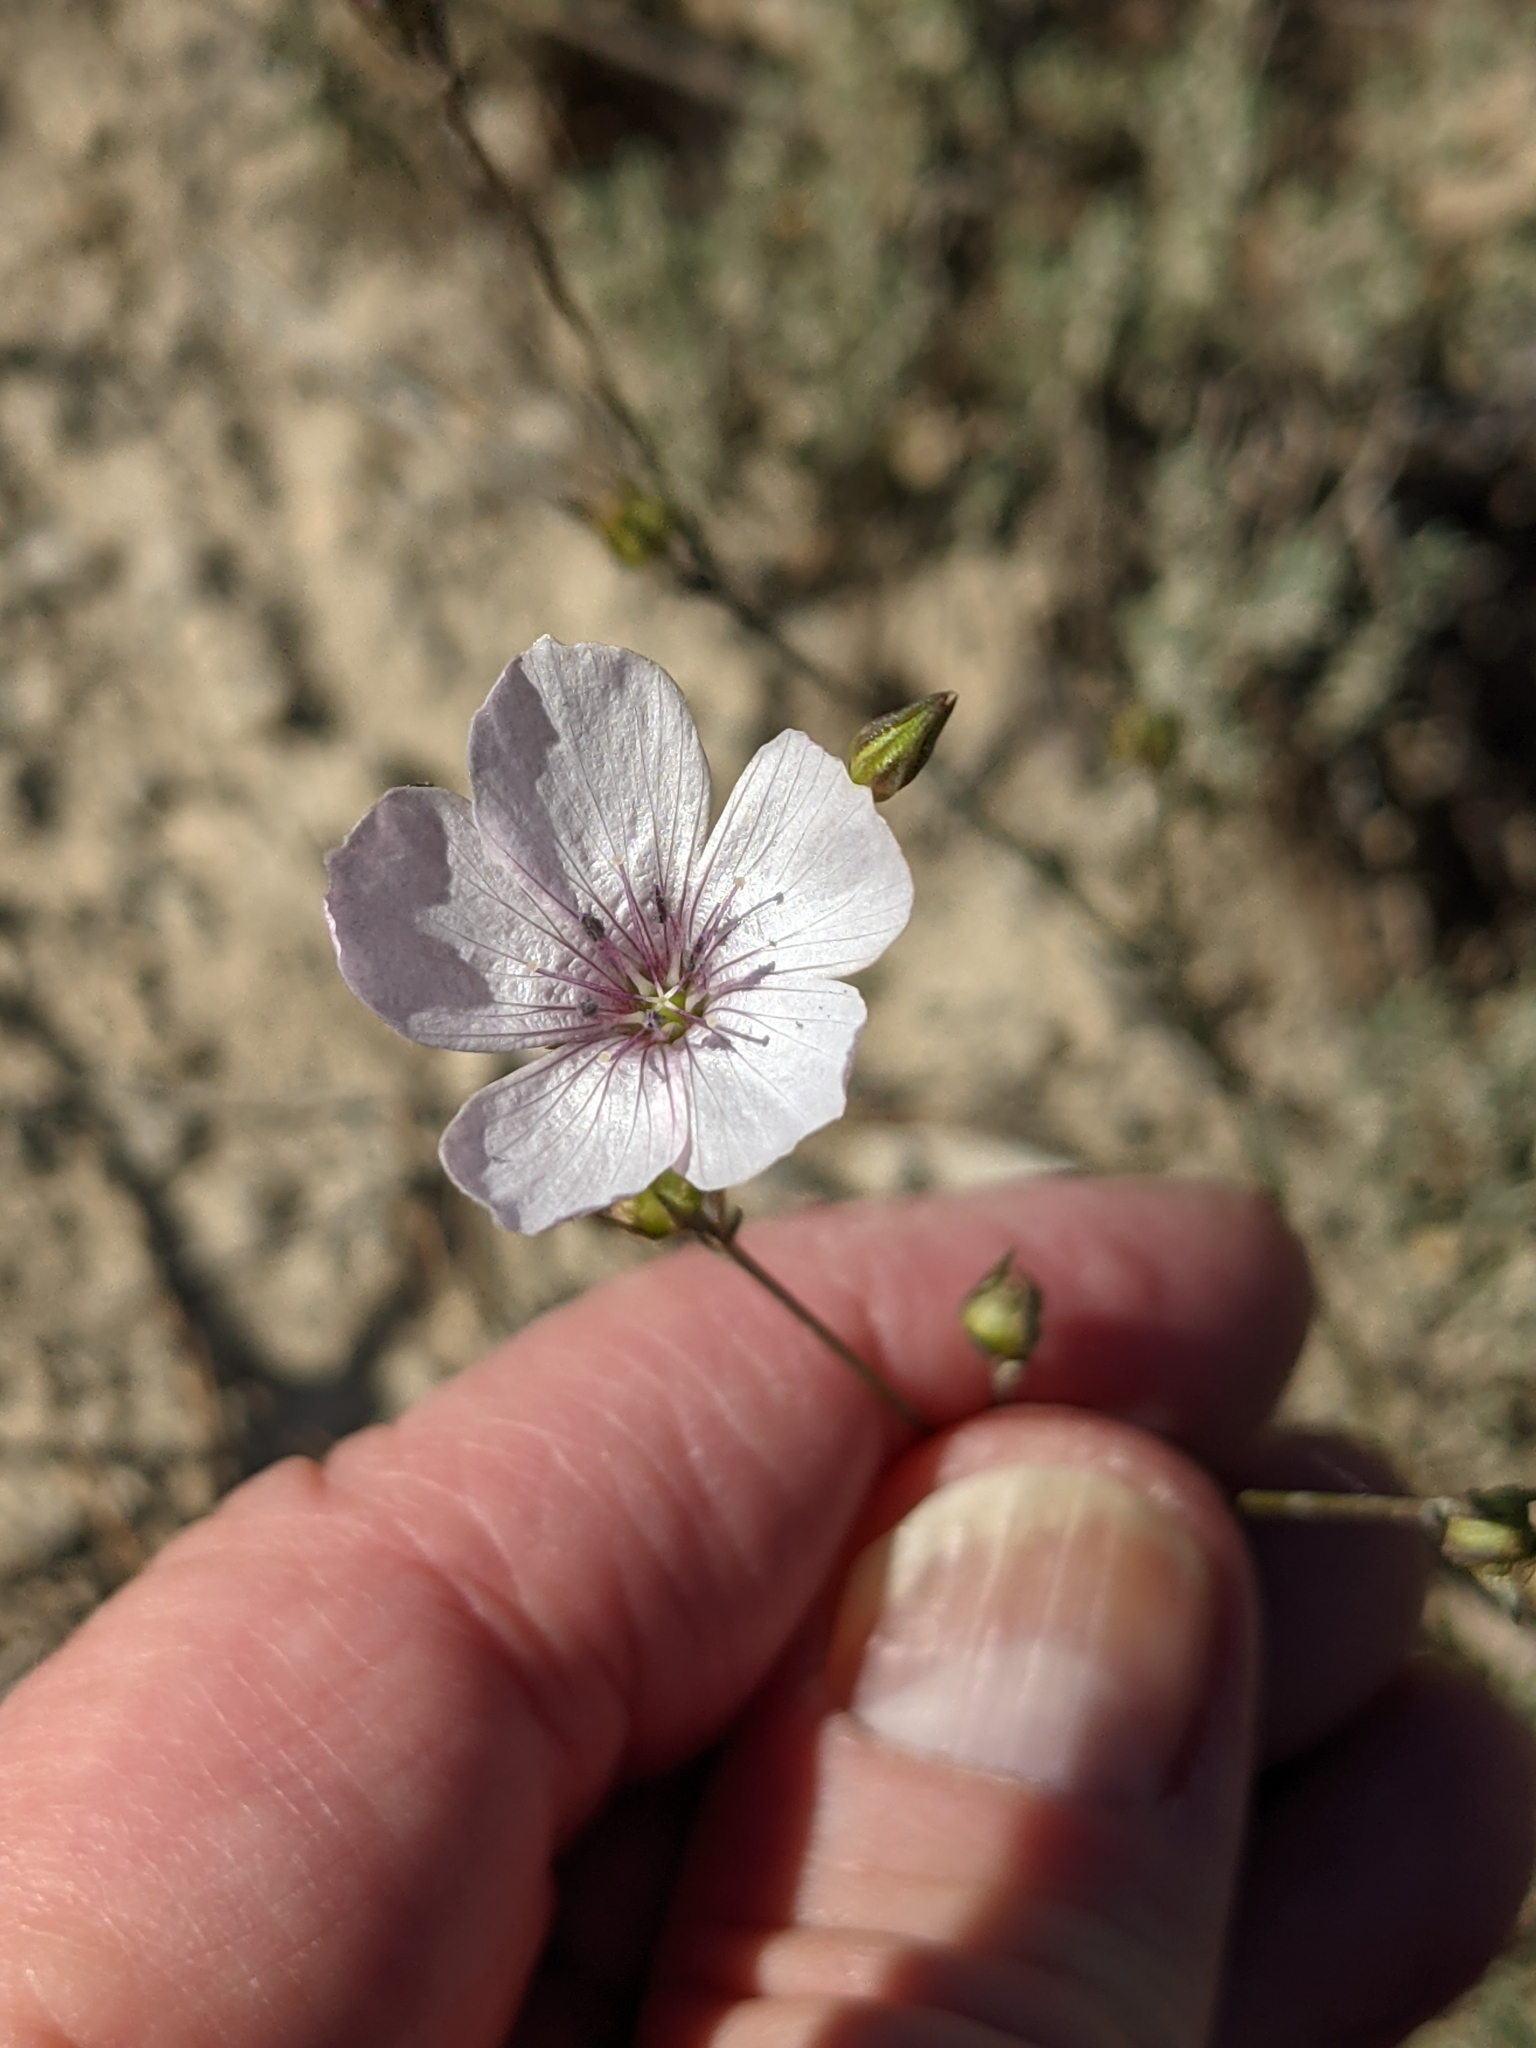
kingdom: Plantae
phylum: Tracheophyta
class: Magnoliopsida
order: Malpighiales
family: Linaceae
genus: Linum
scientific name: Linum tenuifolium
